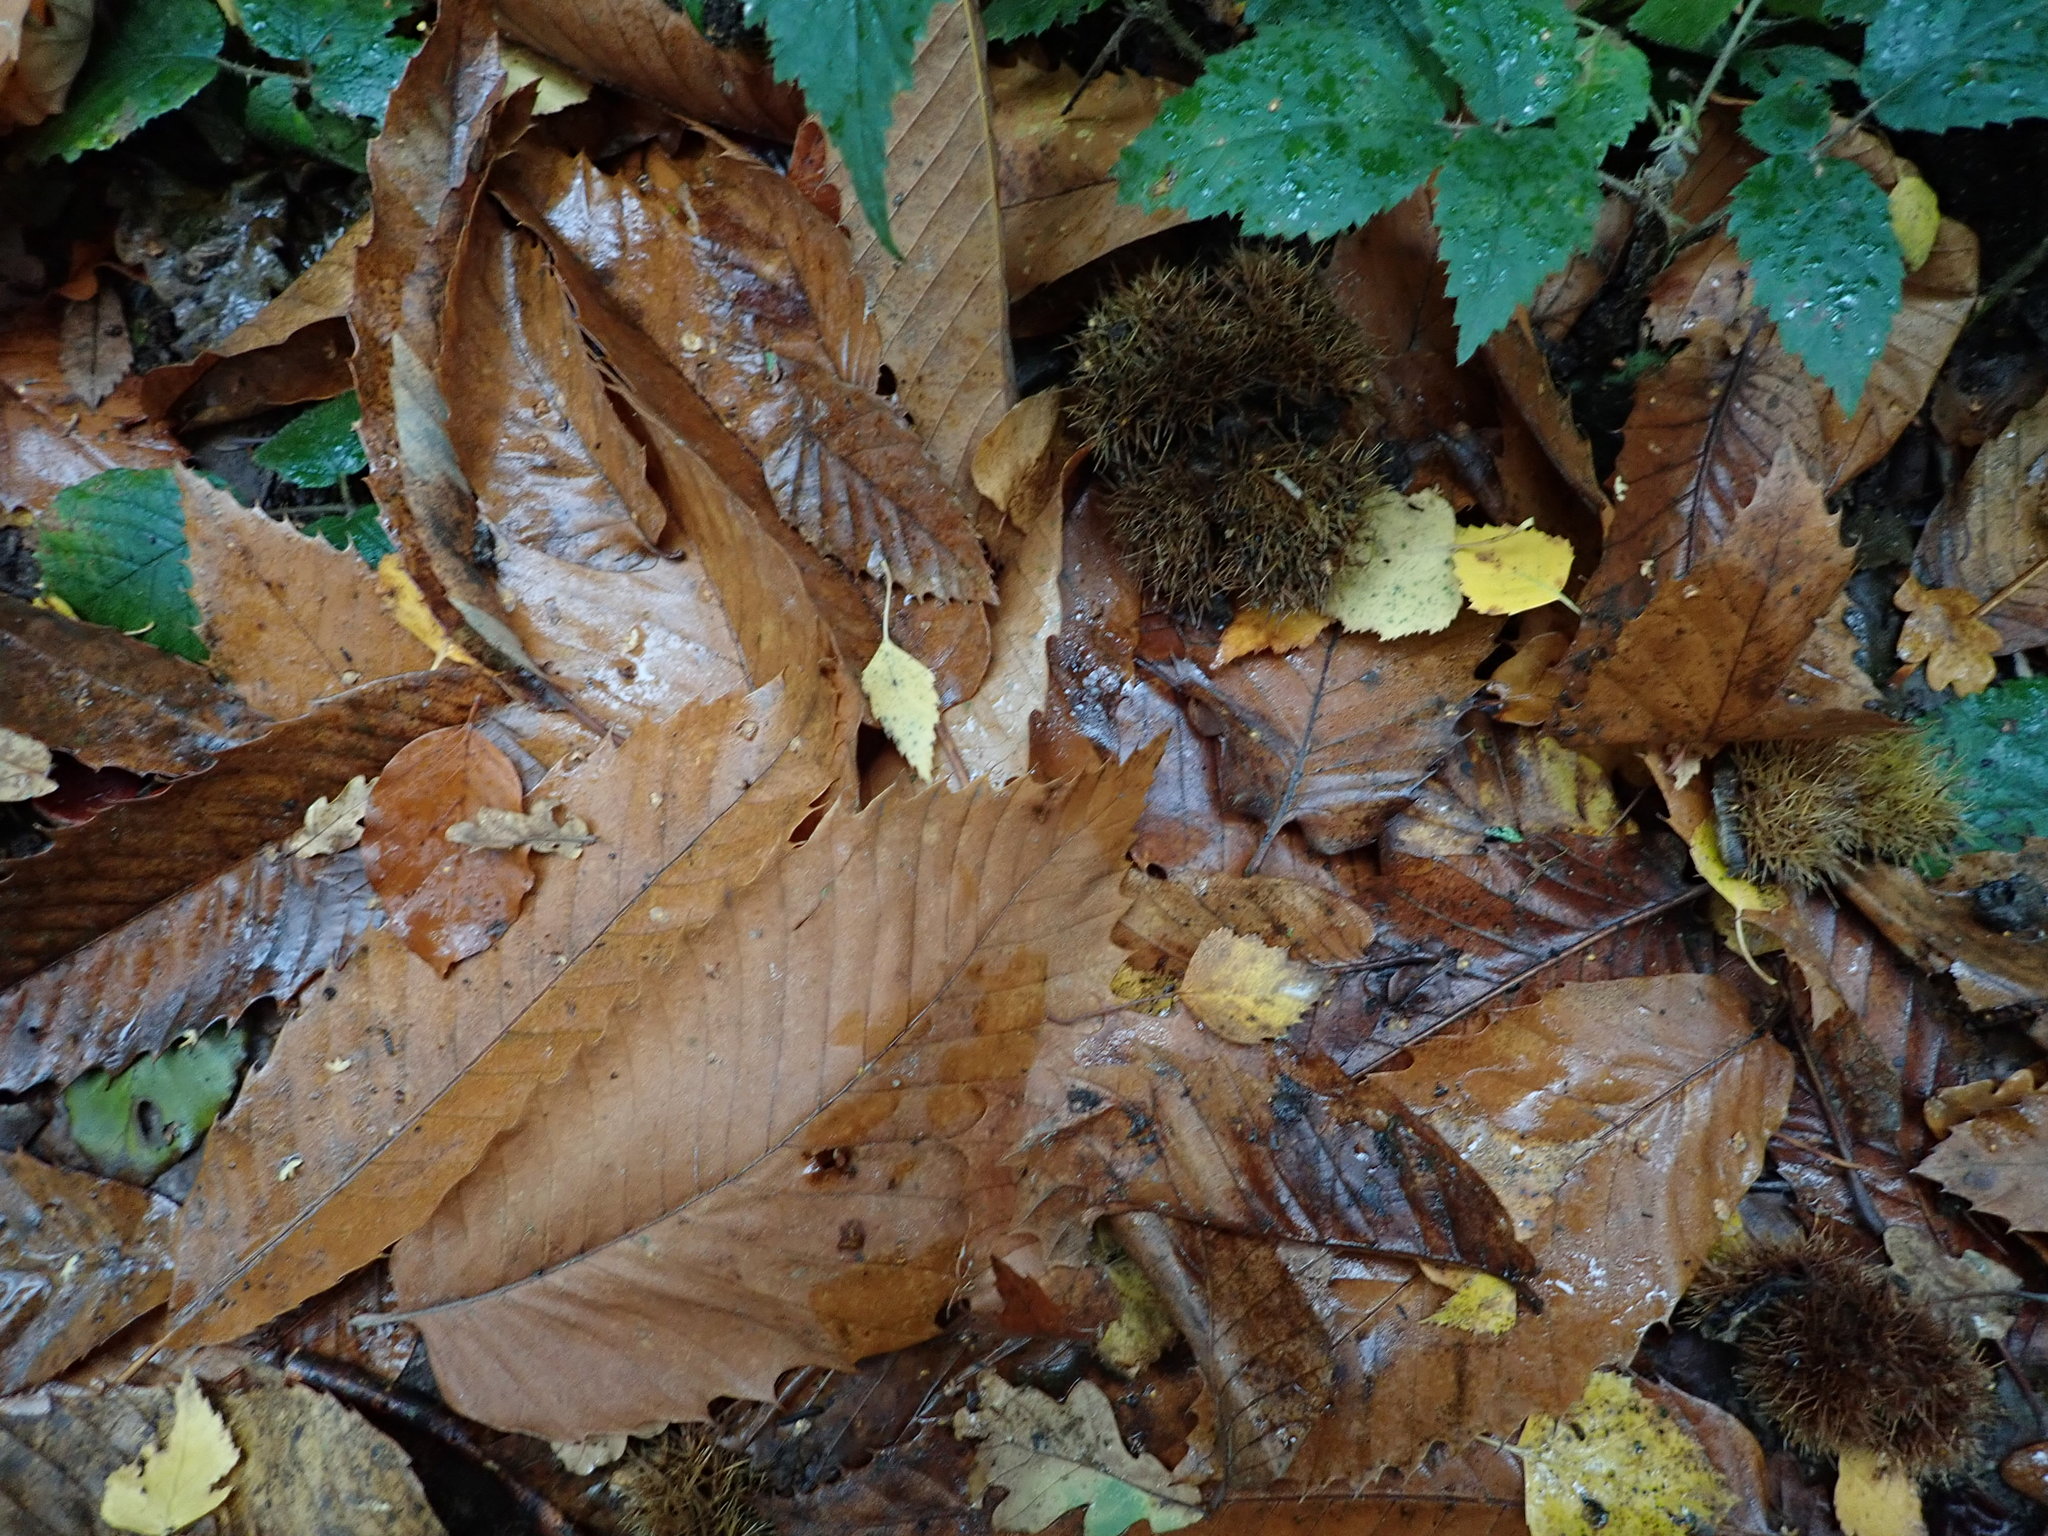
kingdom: Plantae
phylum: Tracheophyta
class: Magnoliopsida
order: Fagales
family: Fagaceae
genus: Castanea
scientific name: Castanea sativa
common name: Sweet chestnut
